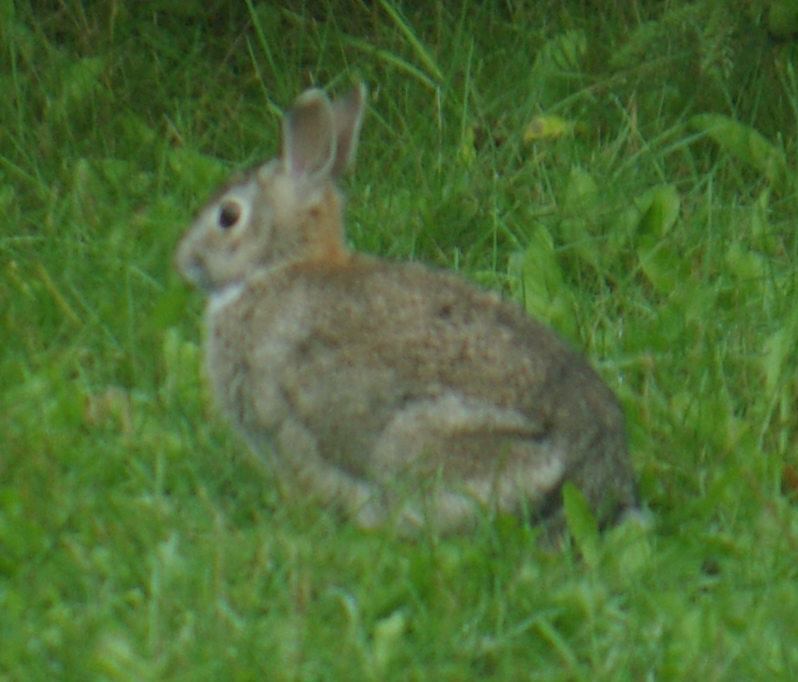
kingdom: Animalia
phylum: Chordata
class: Mammalia
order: Lagomorpha
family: Leporidae
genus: Sylvilagus
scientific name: Sylvilagus floridanus
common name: Eastern cottontail
